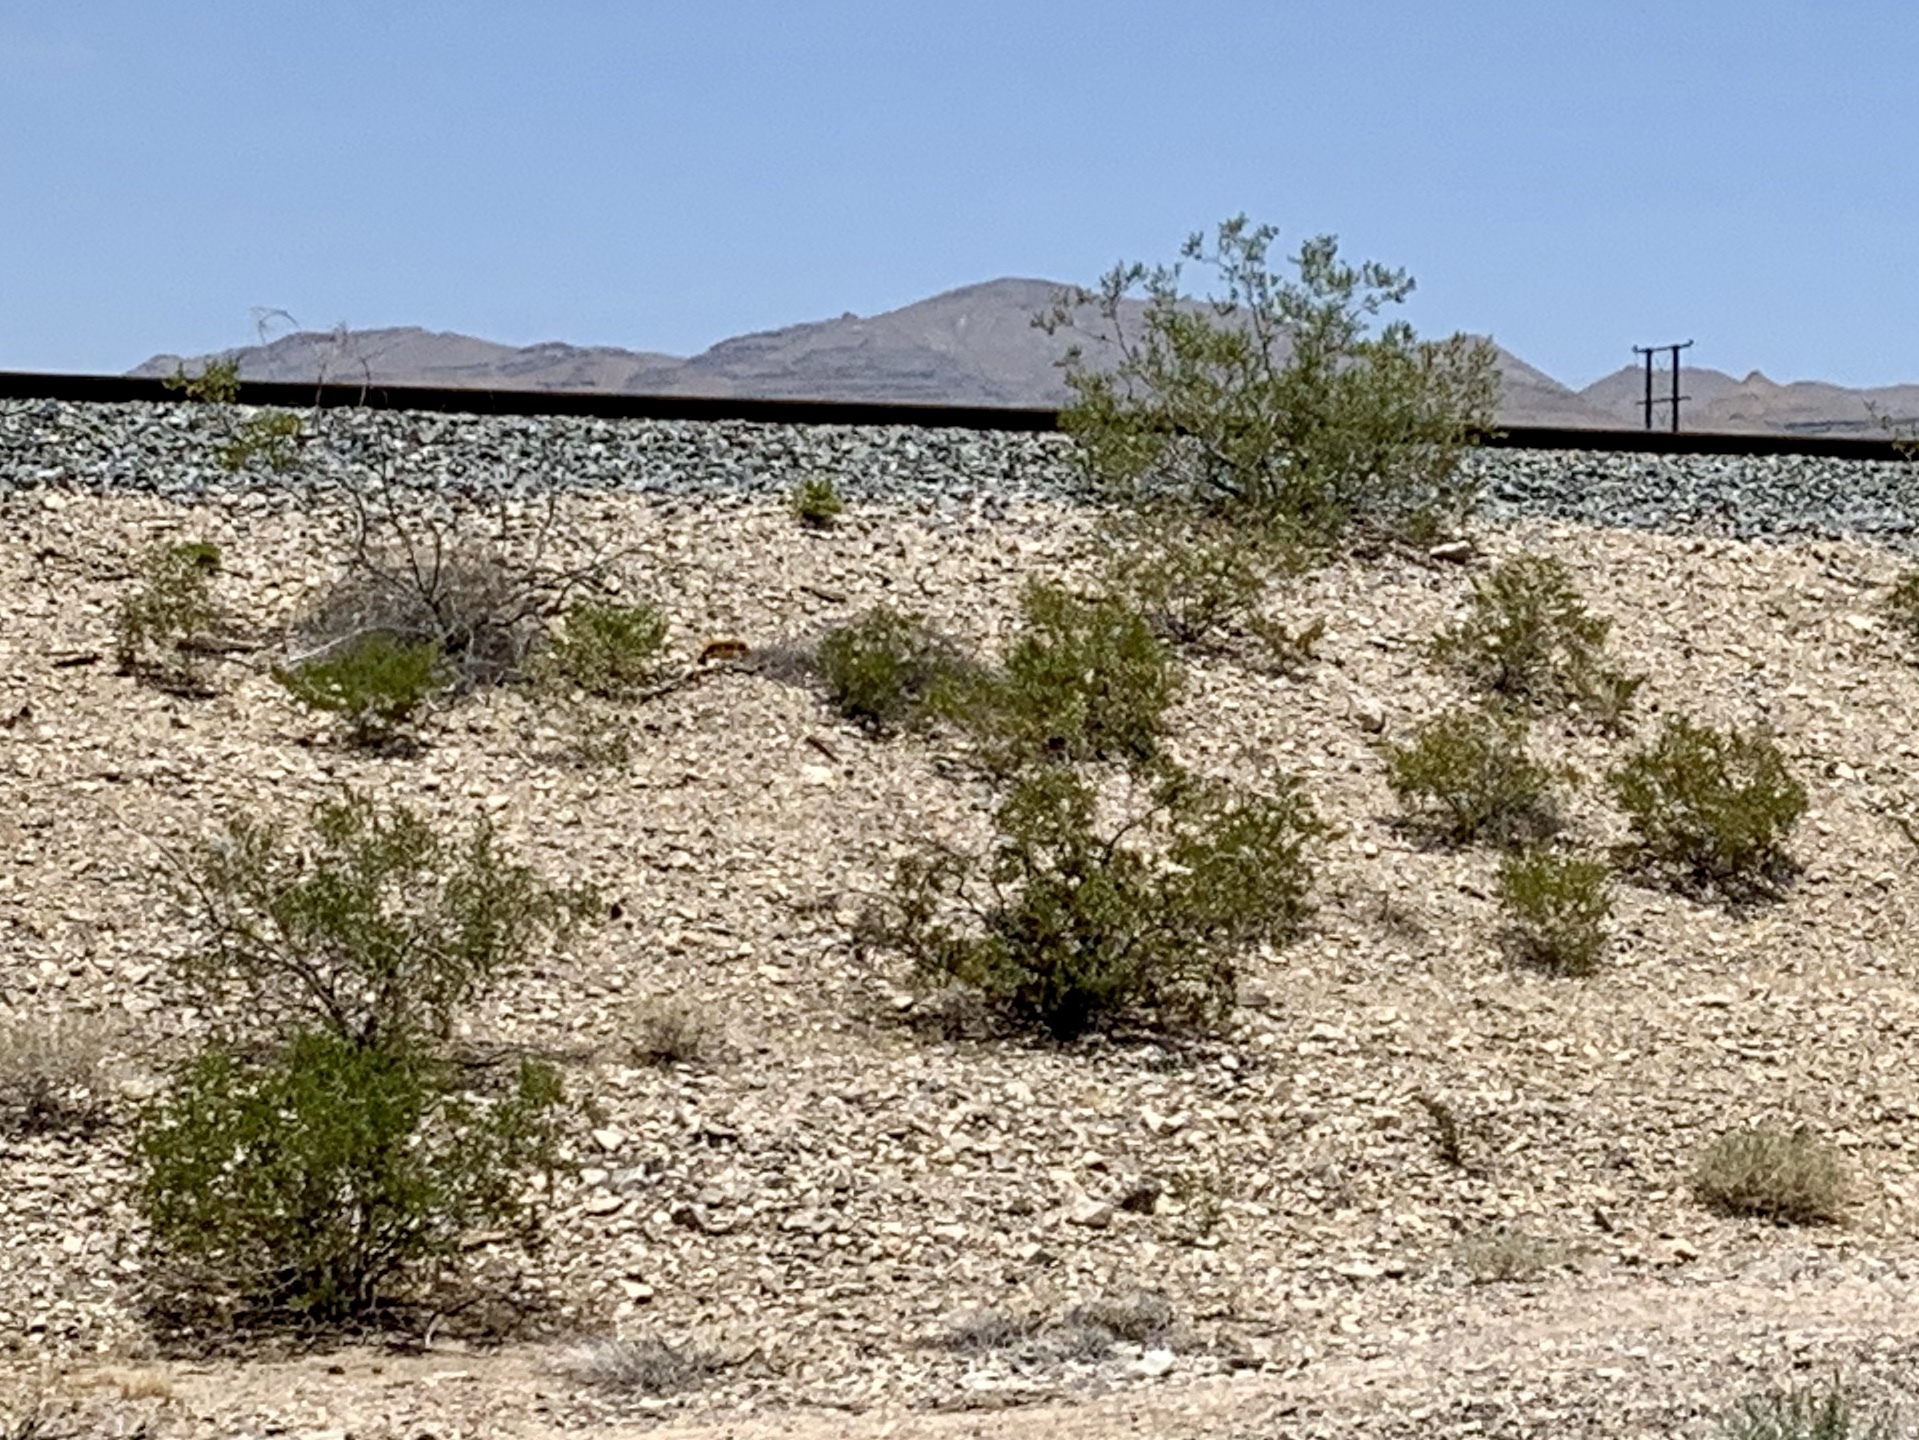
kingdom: Plantae
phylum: Tracheophyta
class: Magnoliopsida
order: Zygophyllales
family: Zygophyllaceae
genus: Larrea
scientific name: Larrea tridentata
